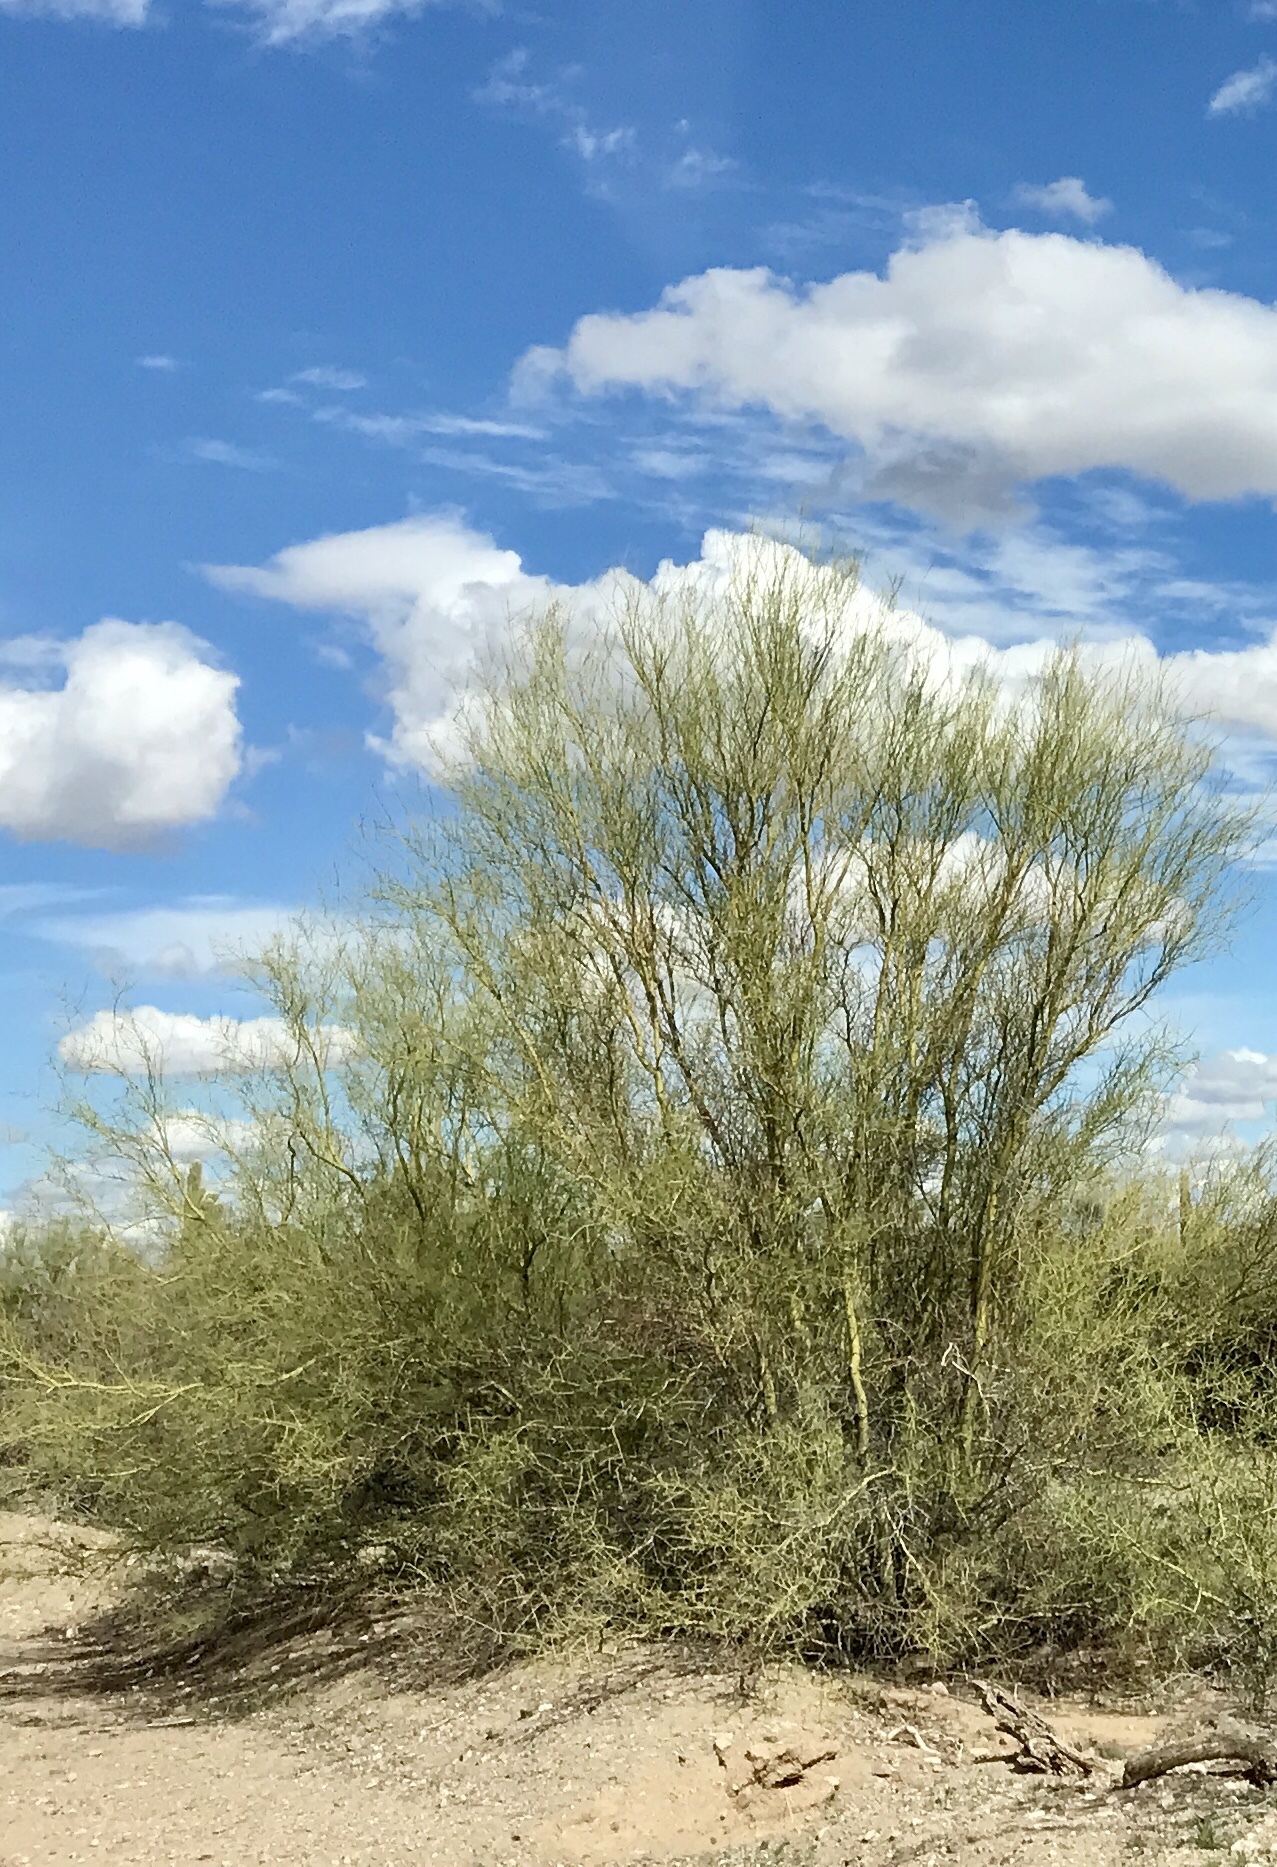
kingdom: Plantae
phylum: Tracheophyta
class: Magnoliopsida
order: Fabales
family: Fabaceae
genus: Parkinsonia
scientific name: Parkinsonia microphylla
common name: Yellow paloverde
